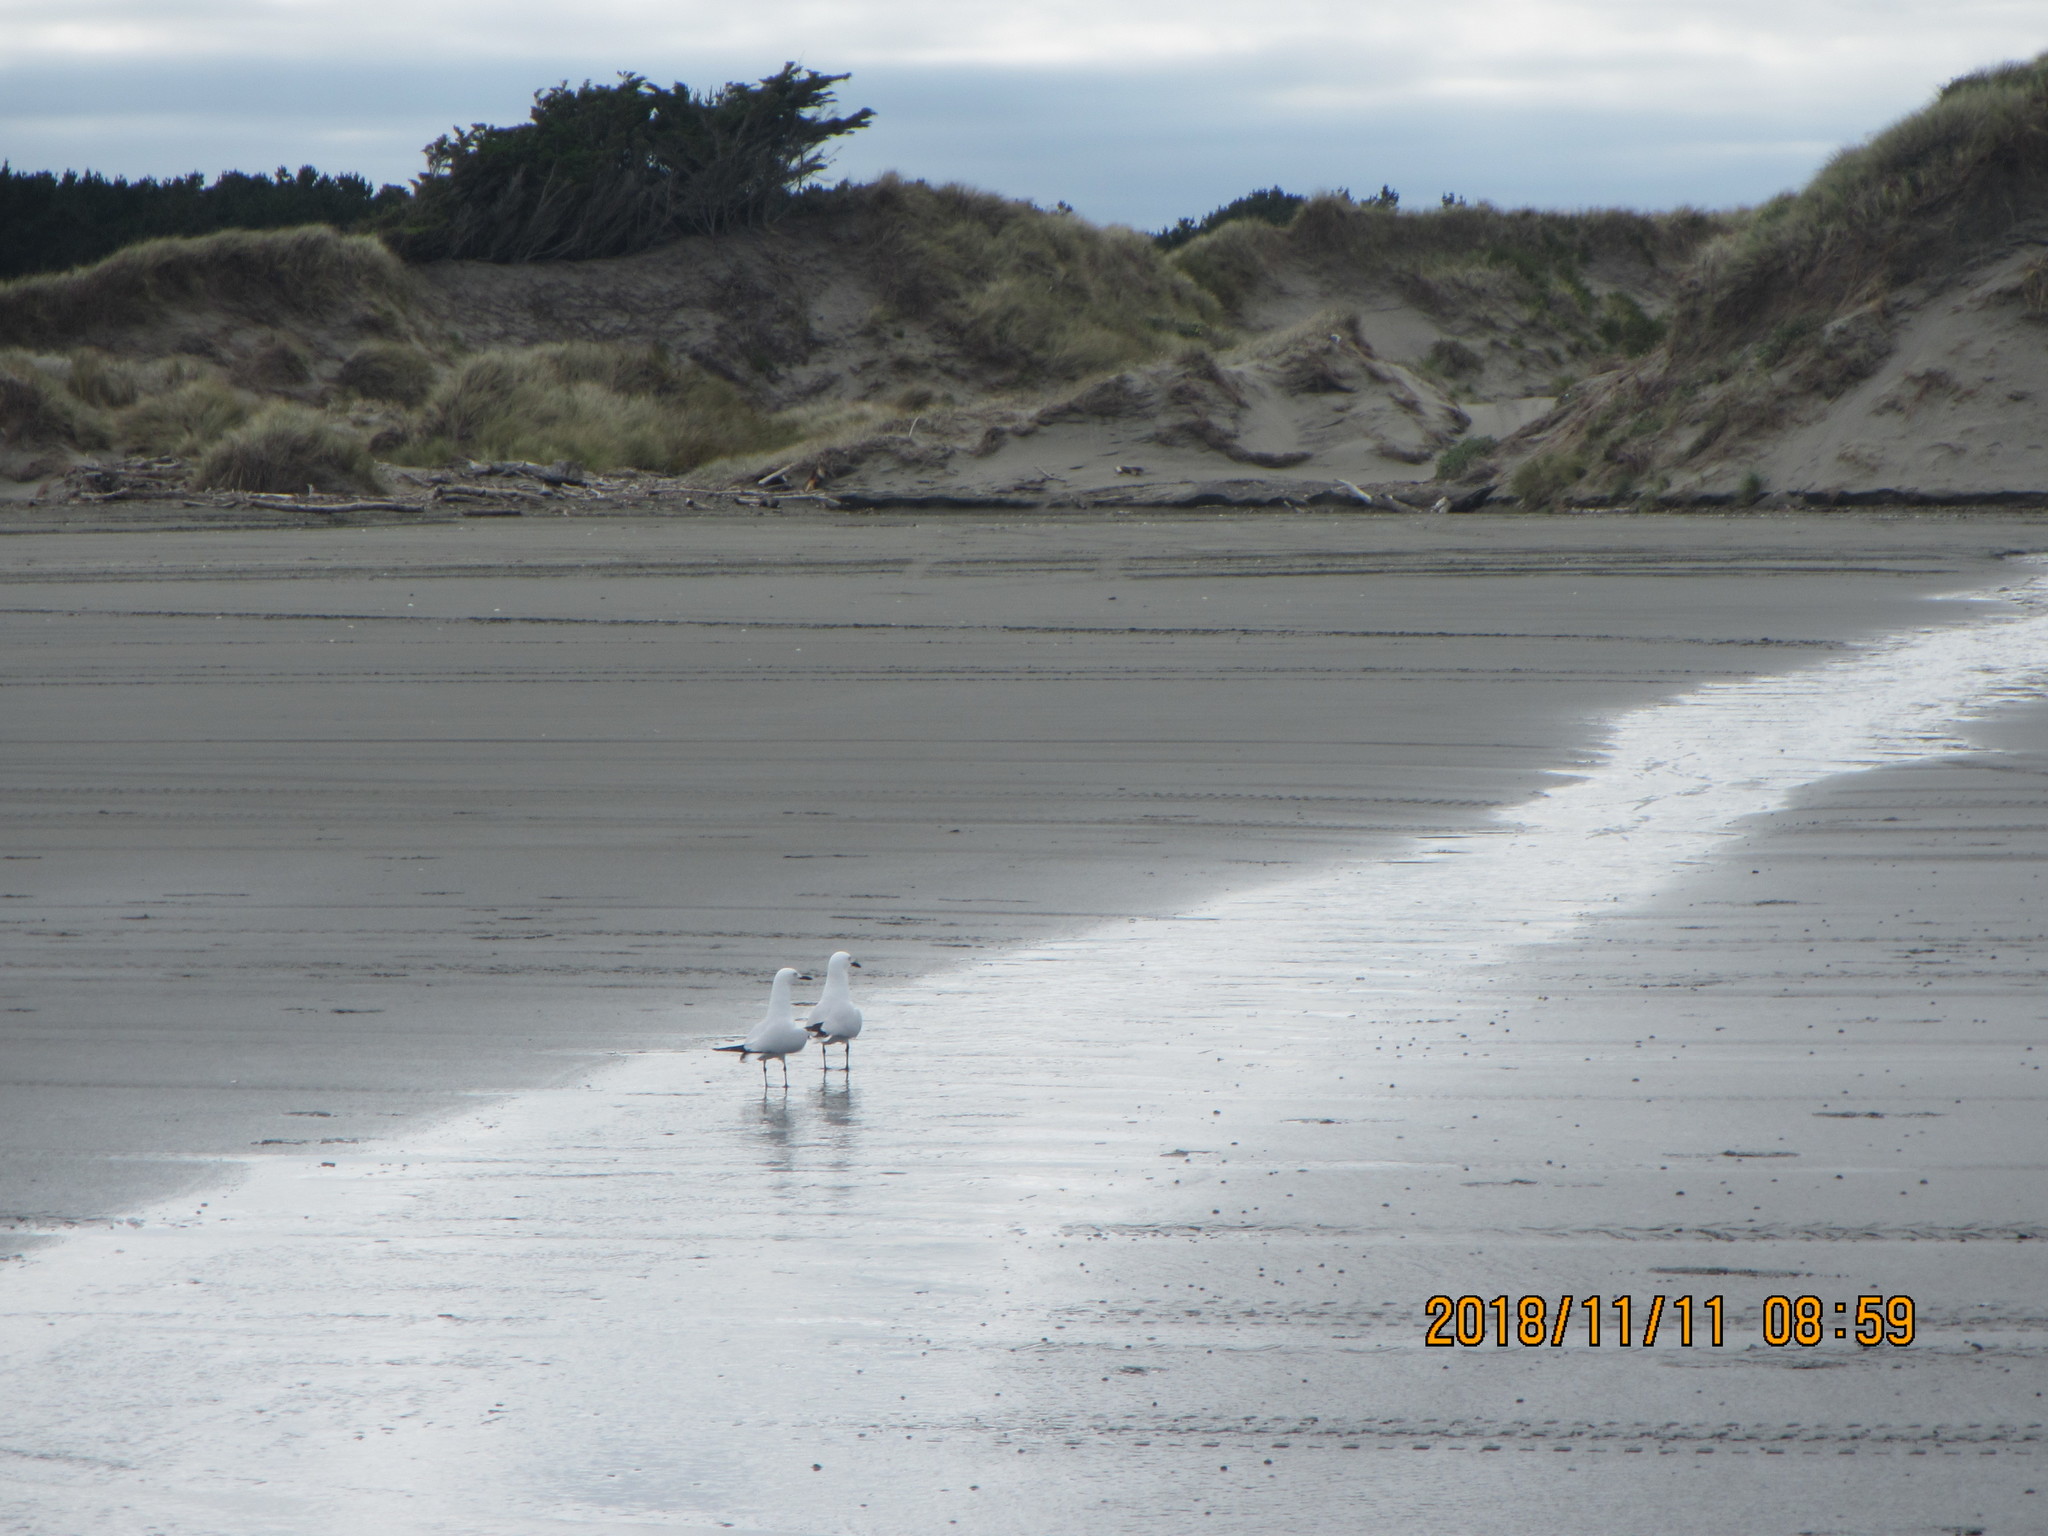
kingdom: Animalia
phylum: Chordata
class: Aves
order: Charadriiformes
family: Laridae
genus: Chroicocephalus
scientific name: Chroicocephalus bulleri
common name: Black-billed gull
